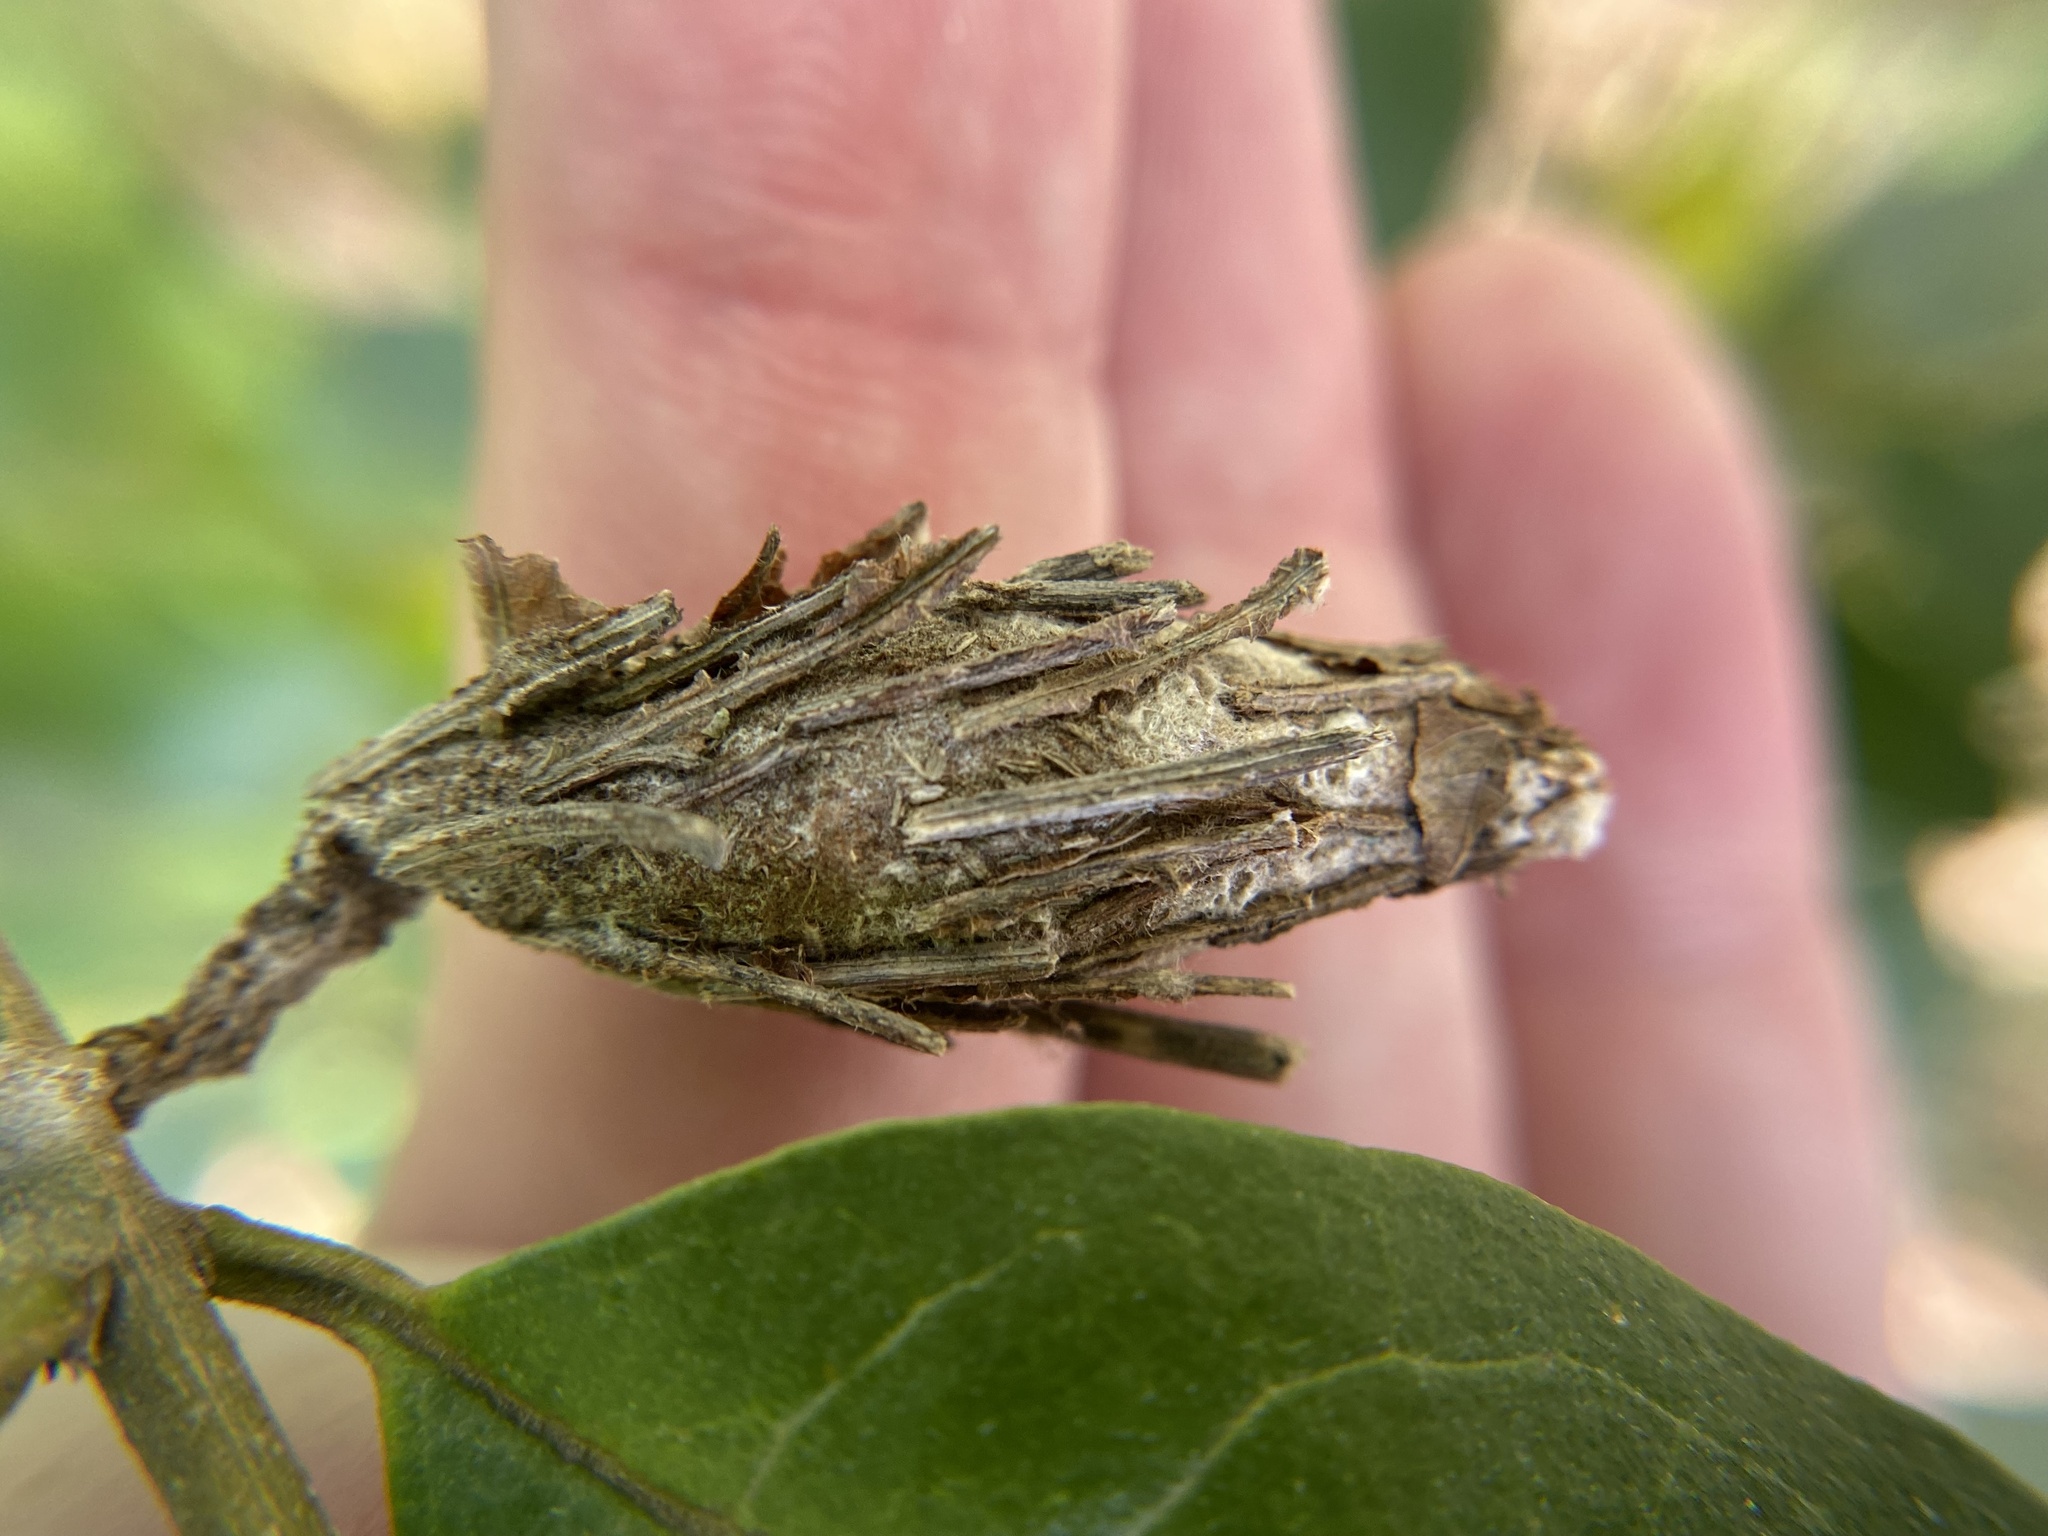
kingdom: Animalia
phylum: Arthropoda
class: Insecta
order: Lepidoptera
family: Psychidae
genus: Thyridopteryx
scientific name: Thyridopteryx ephemeraeformis
